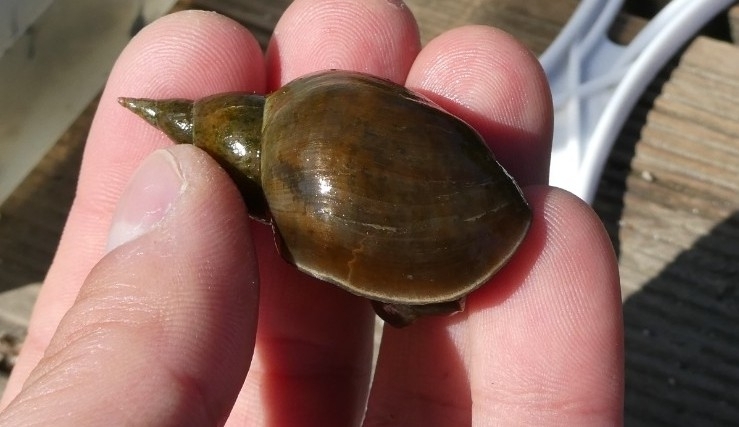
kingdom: Animalia
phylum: Mollusca
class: Gastropoda
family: Lymnaeidae
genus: Lymnaea
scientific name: Lymnaea stagnalis
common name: Great pond snail
